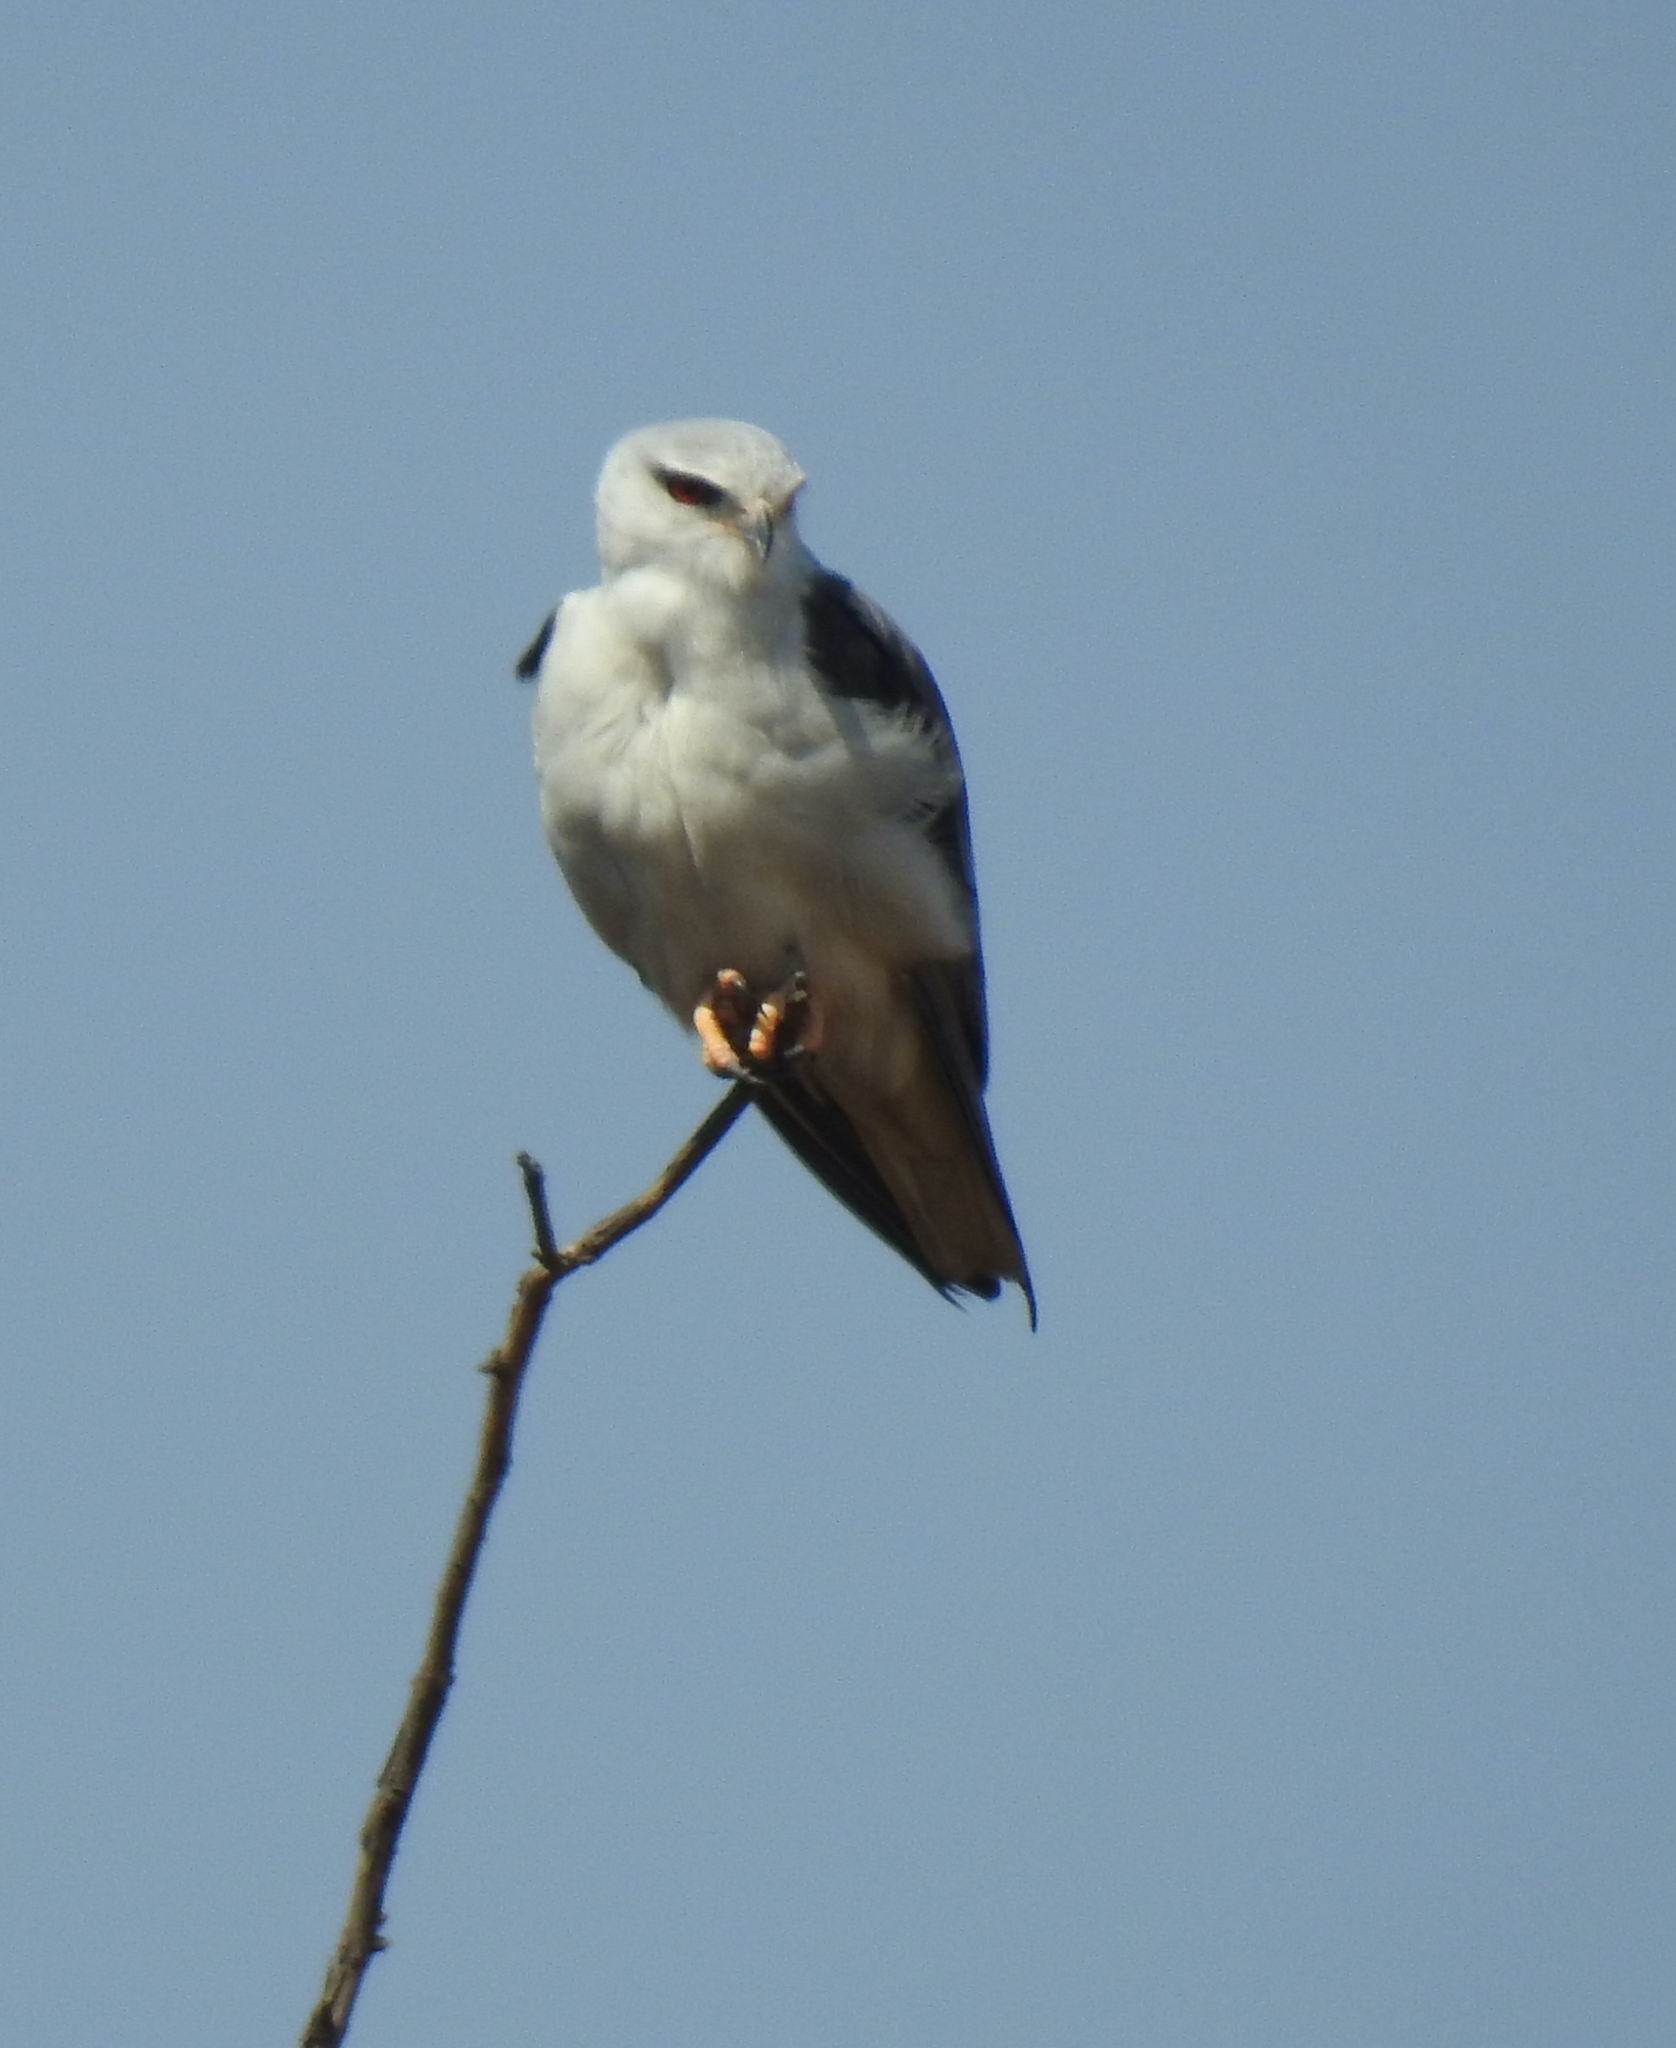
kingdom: Animalia
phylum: Chordata
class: Aves
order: Accipitriformes
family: Accipitridae
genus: Elanus
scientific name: Elanus caeruleus
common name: Black-winged kite
